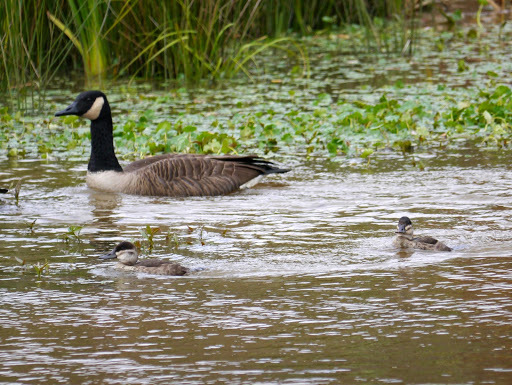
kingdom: Animalia
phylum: Chordata
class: Aves
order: Anseriformes
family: Anatidae
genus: Oxyura
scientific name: Oxyura jamaicensis
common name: Ruddy duck
